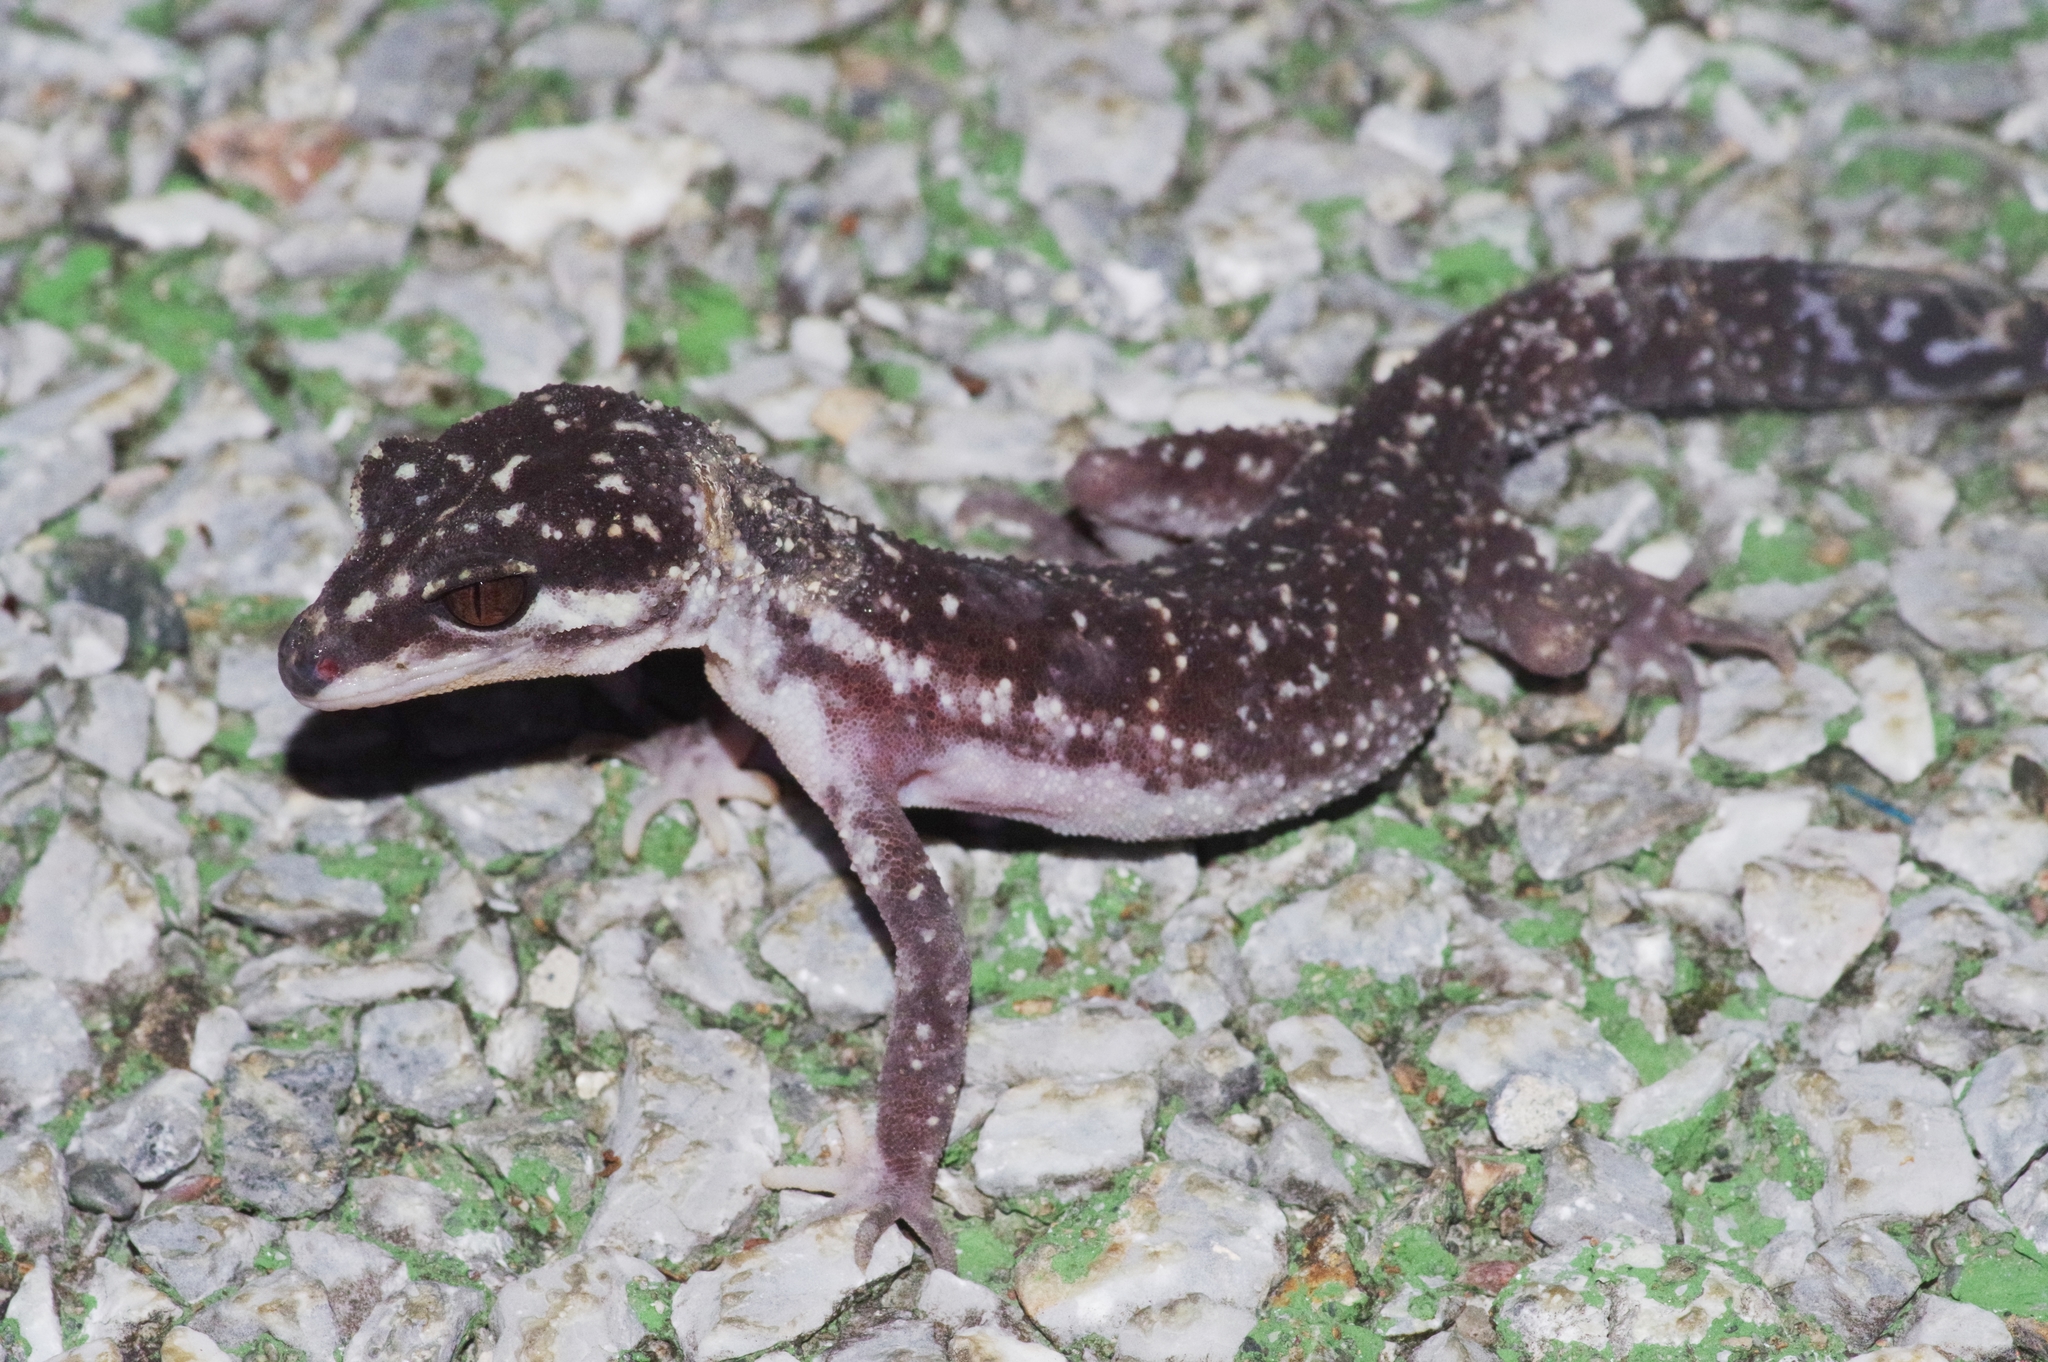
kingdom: Animalia
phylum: Chordata
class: Squamata
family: Eublepharidae
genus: Goniurosaurus
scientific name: Goniurosaurus kuroiwae
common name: Tokashiki gecko
